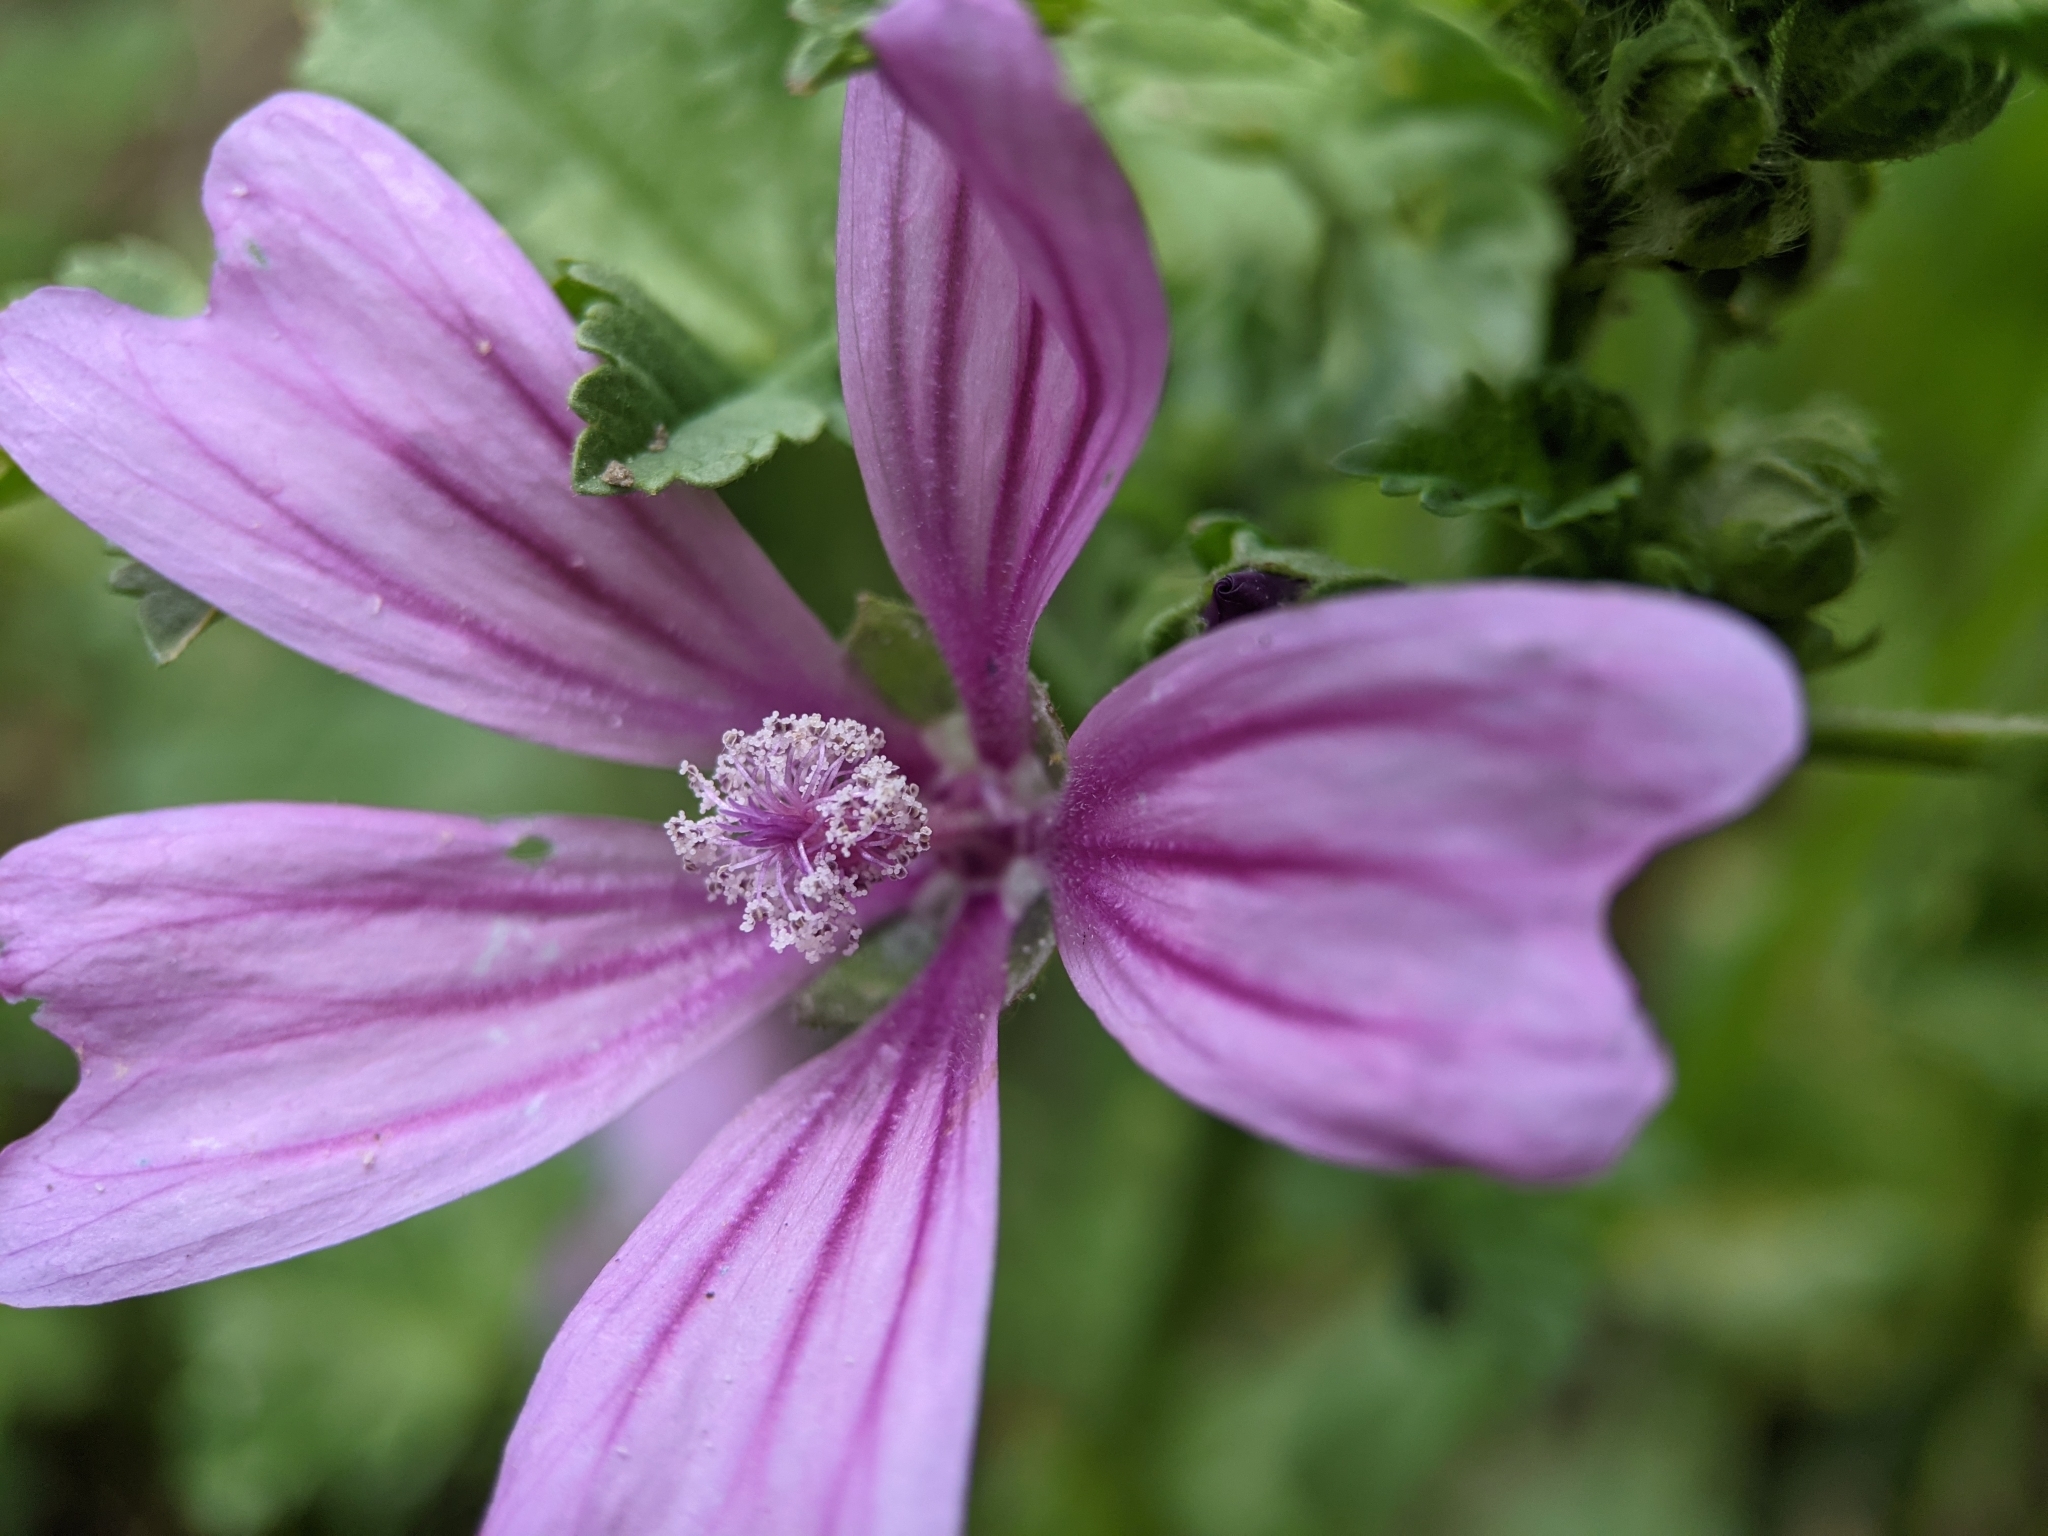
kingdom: Plantae
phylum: Tracheophyta
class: Magnoliopsida
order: Malvales
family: Malvaceae
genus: Malva
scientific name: Malva sylvestris
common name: Common mallow
